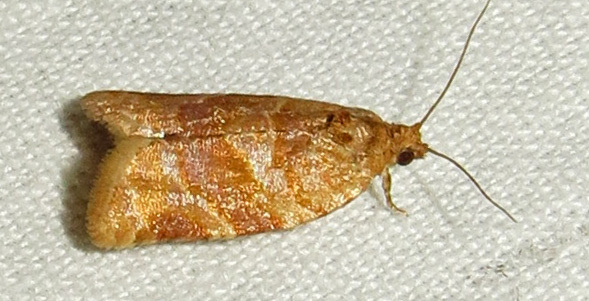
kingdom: Animalia
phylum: Arthropoda
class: Insecta
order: Lepidoptera
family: Tortricidae
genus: Argyrotaenia
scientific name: Argyrotaenia pinatubana
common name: Pine tube moth
